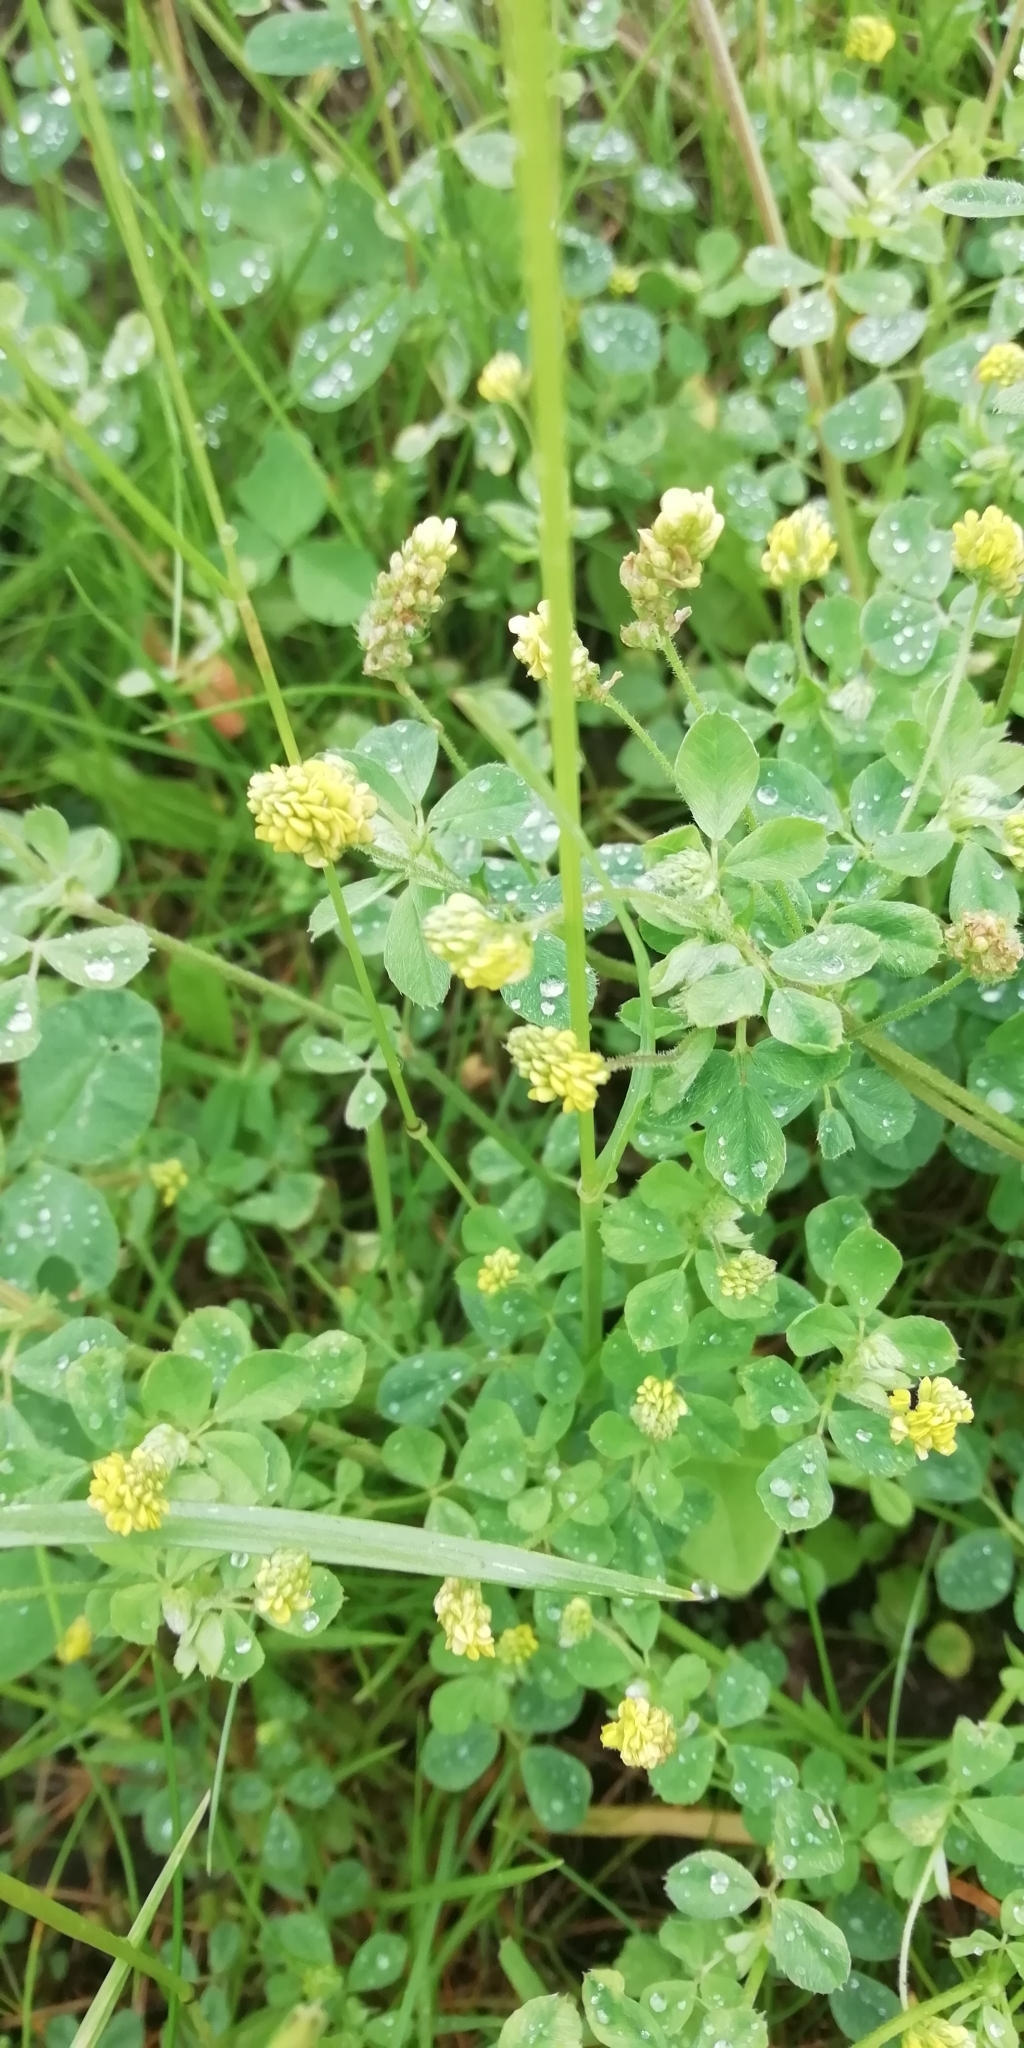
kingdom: Plantae
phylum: Tracheophyta
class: Magnoliopsida
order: Fabales
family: Fabaceae
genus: Medicago
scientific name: Medicago lupulina
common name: Black medick
